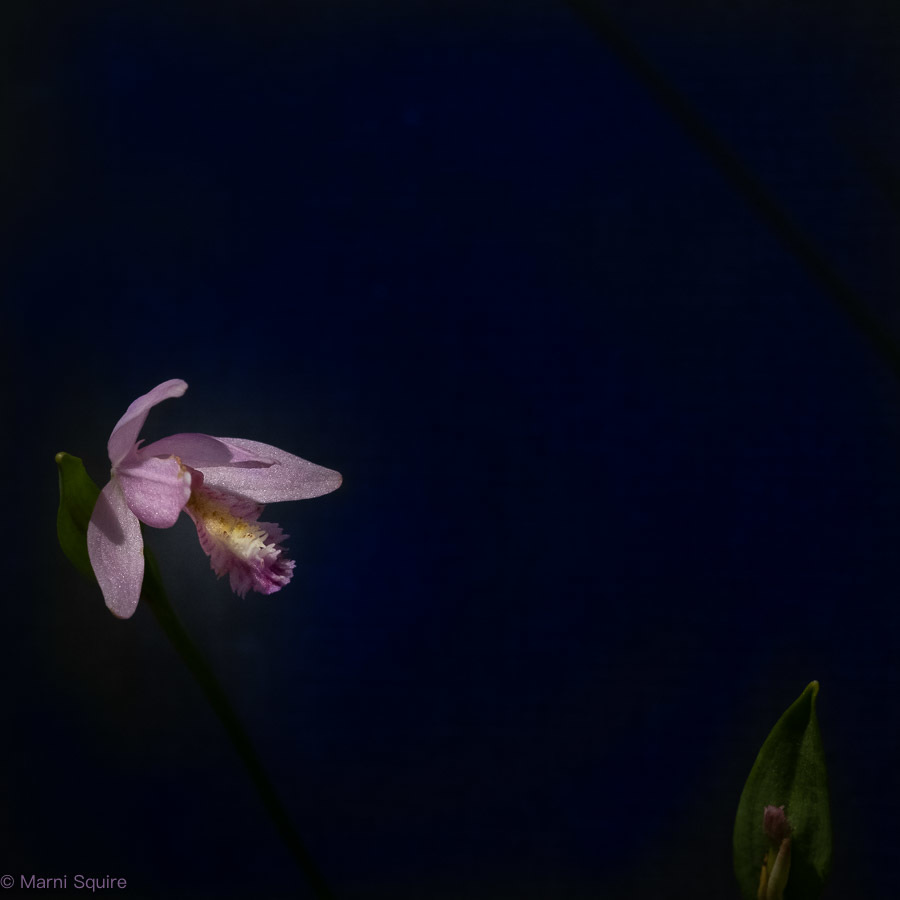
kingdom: Plantae
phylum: Tracheophyta
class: Liliopsida
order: Asparagales
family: Orchidaceae
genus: Pogonia
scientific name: Pogonia ophioglossoides
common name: Rose pogonia
